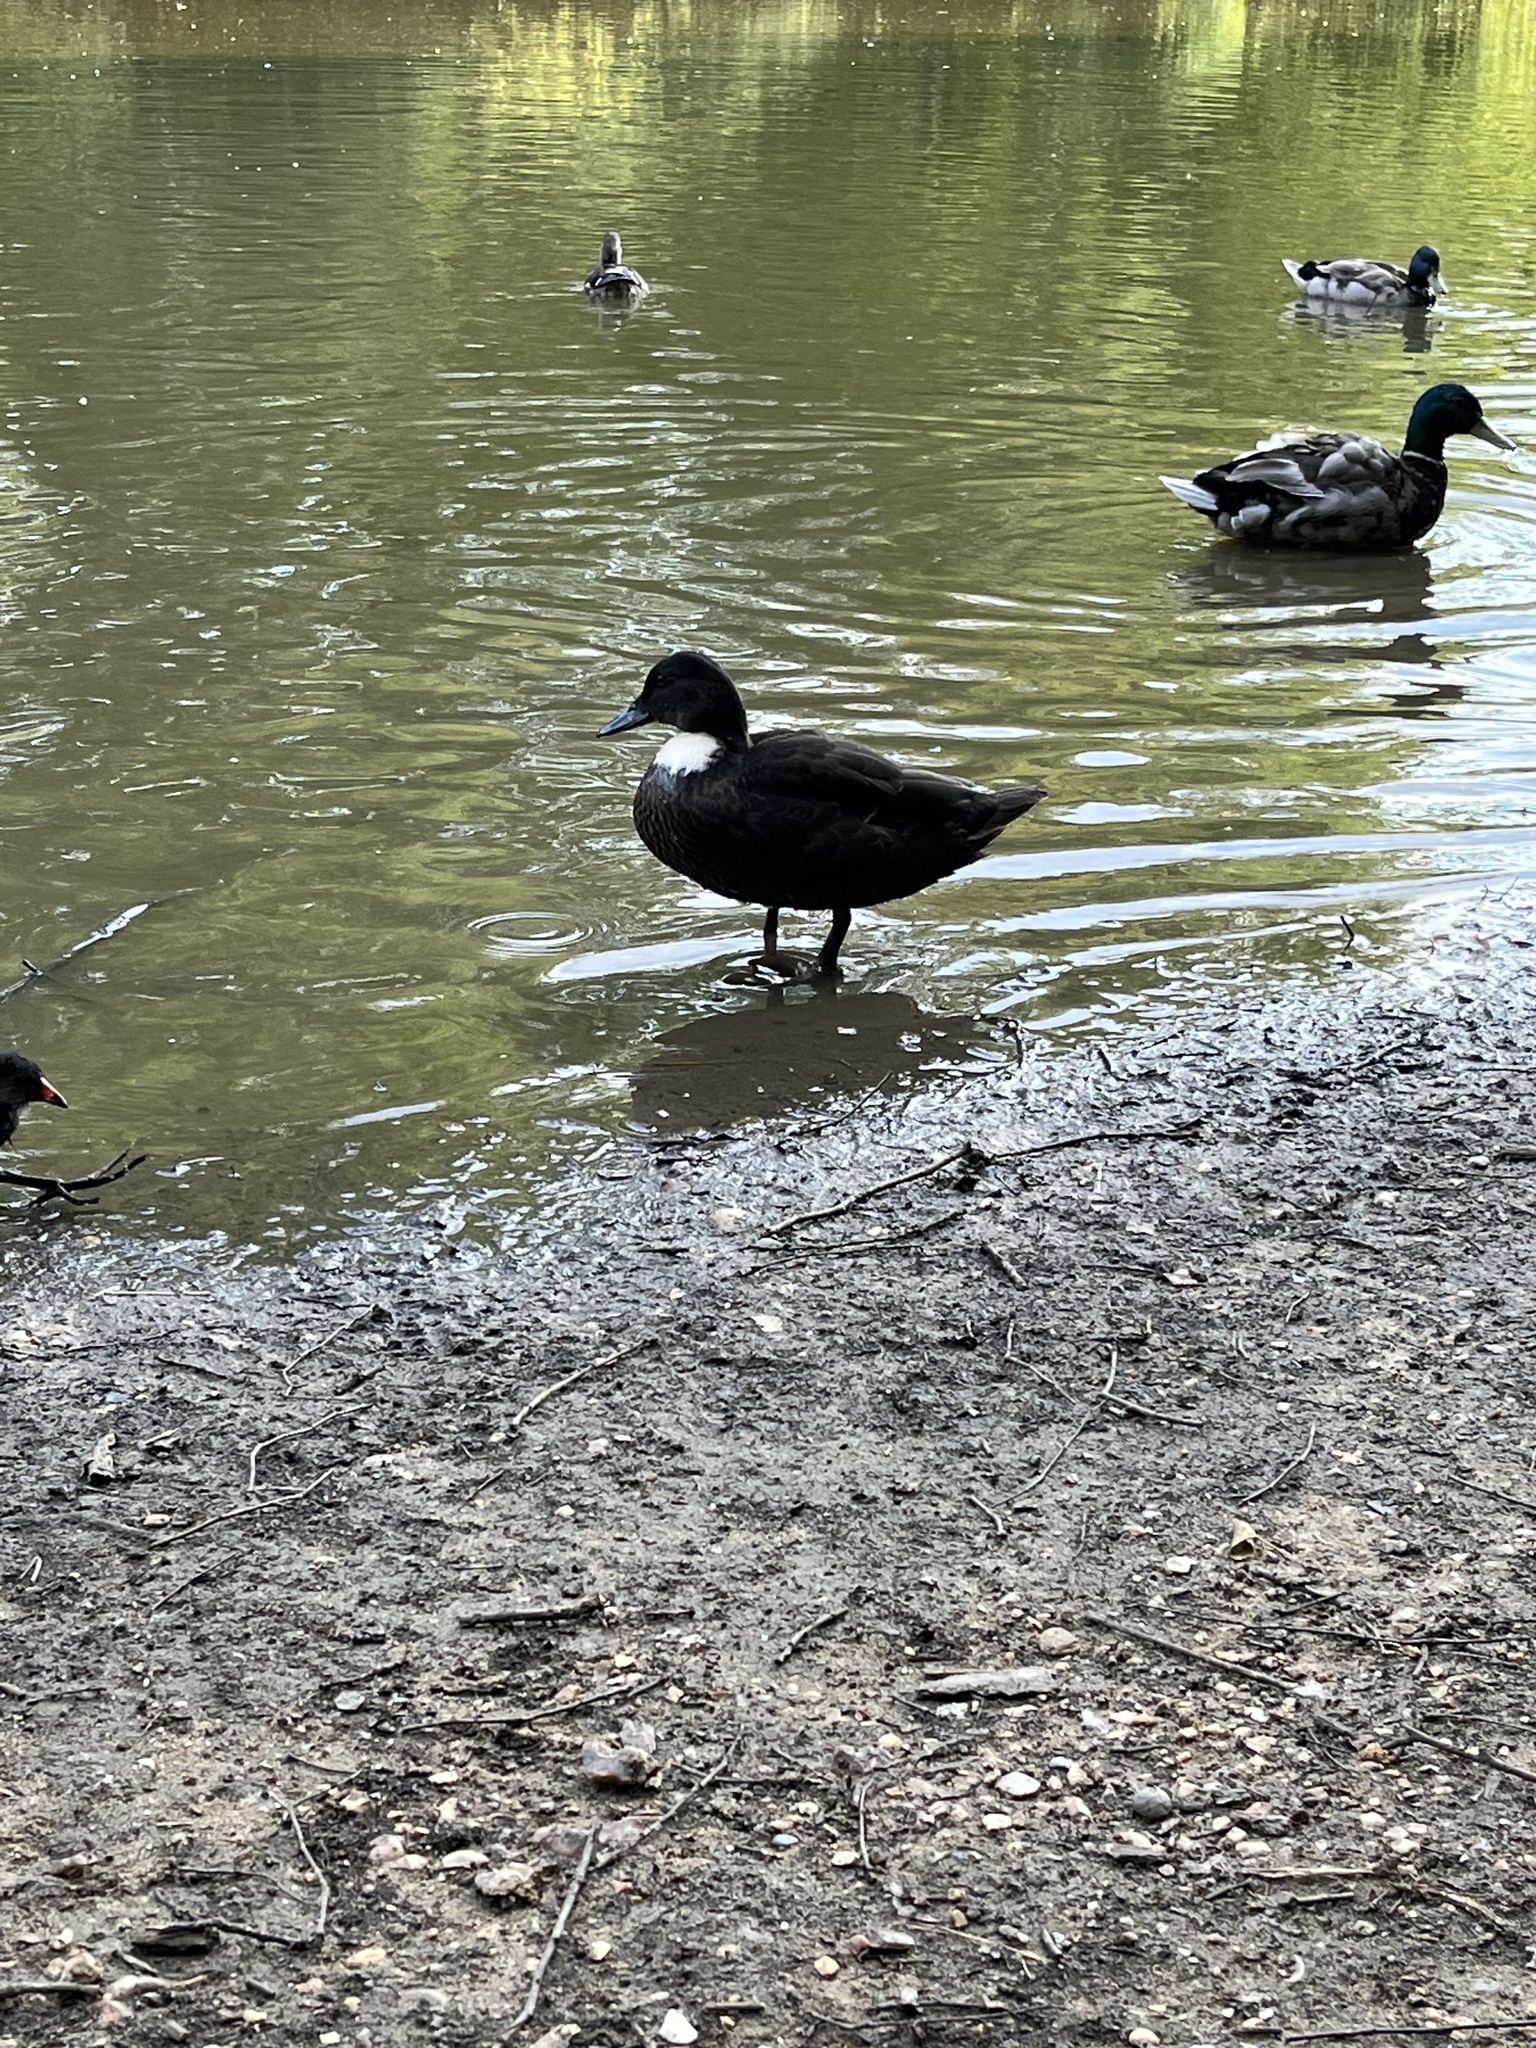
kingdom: Animalia
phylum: Chordata
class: Aves
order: Anseriformes
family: Anatidae
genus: Anas
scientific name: Anas platyrhynchos
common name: Mallard
